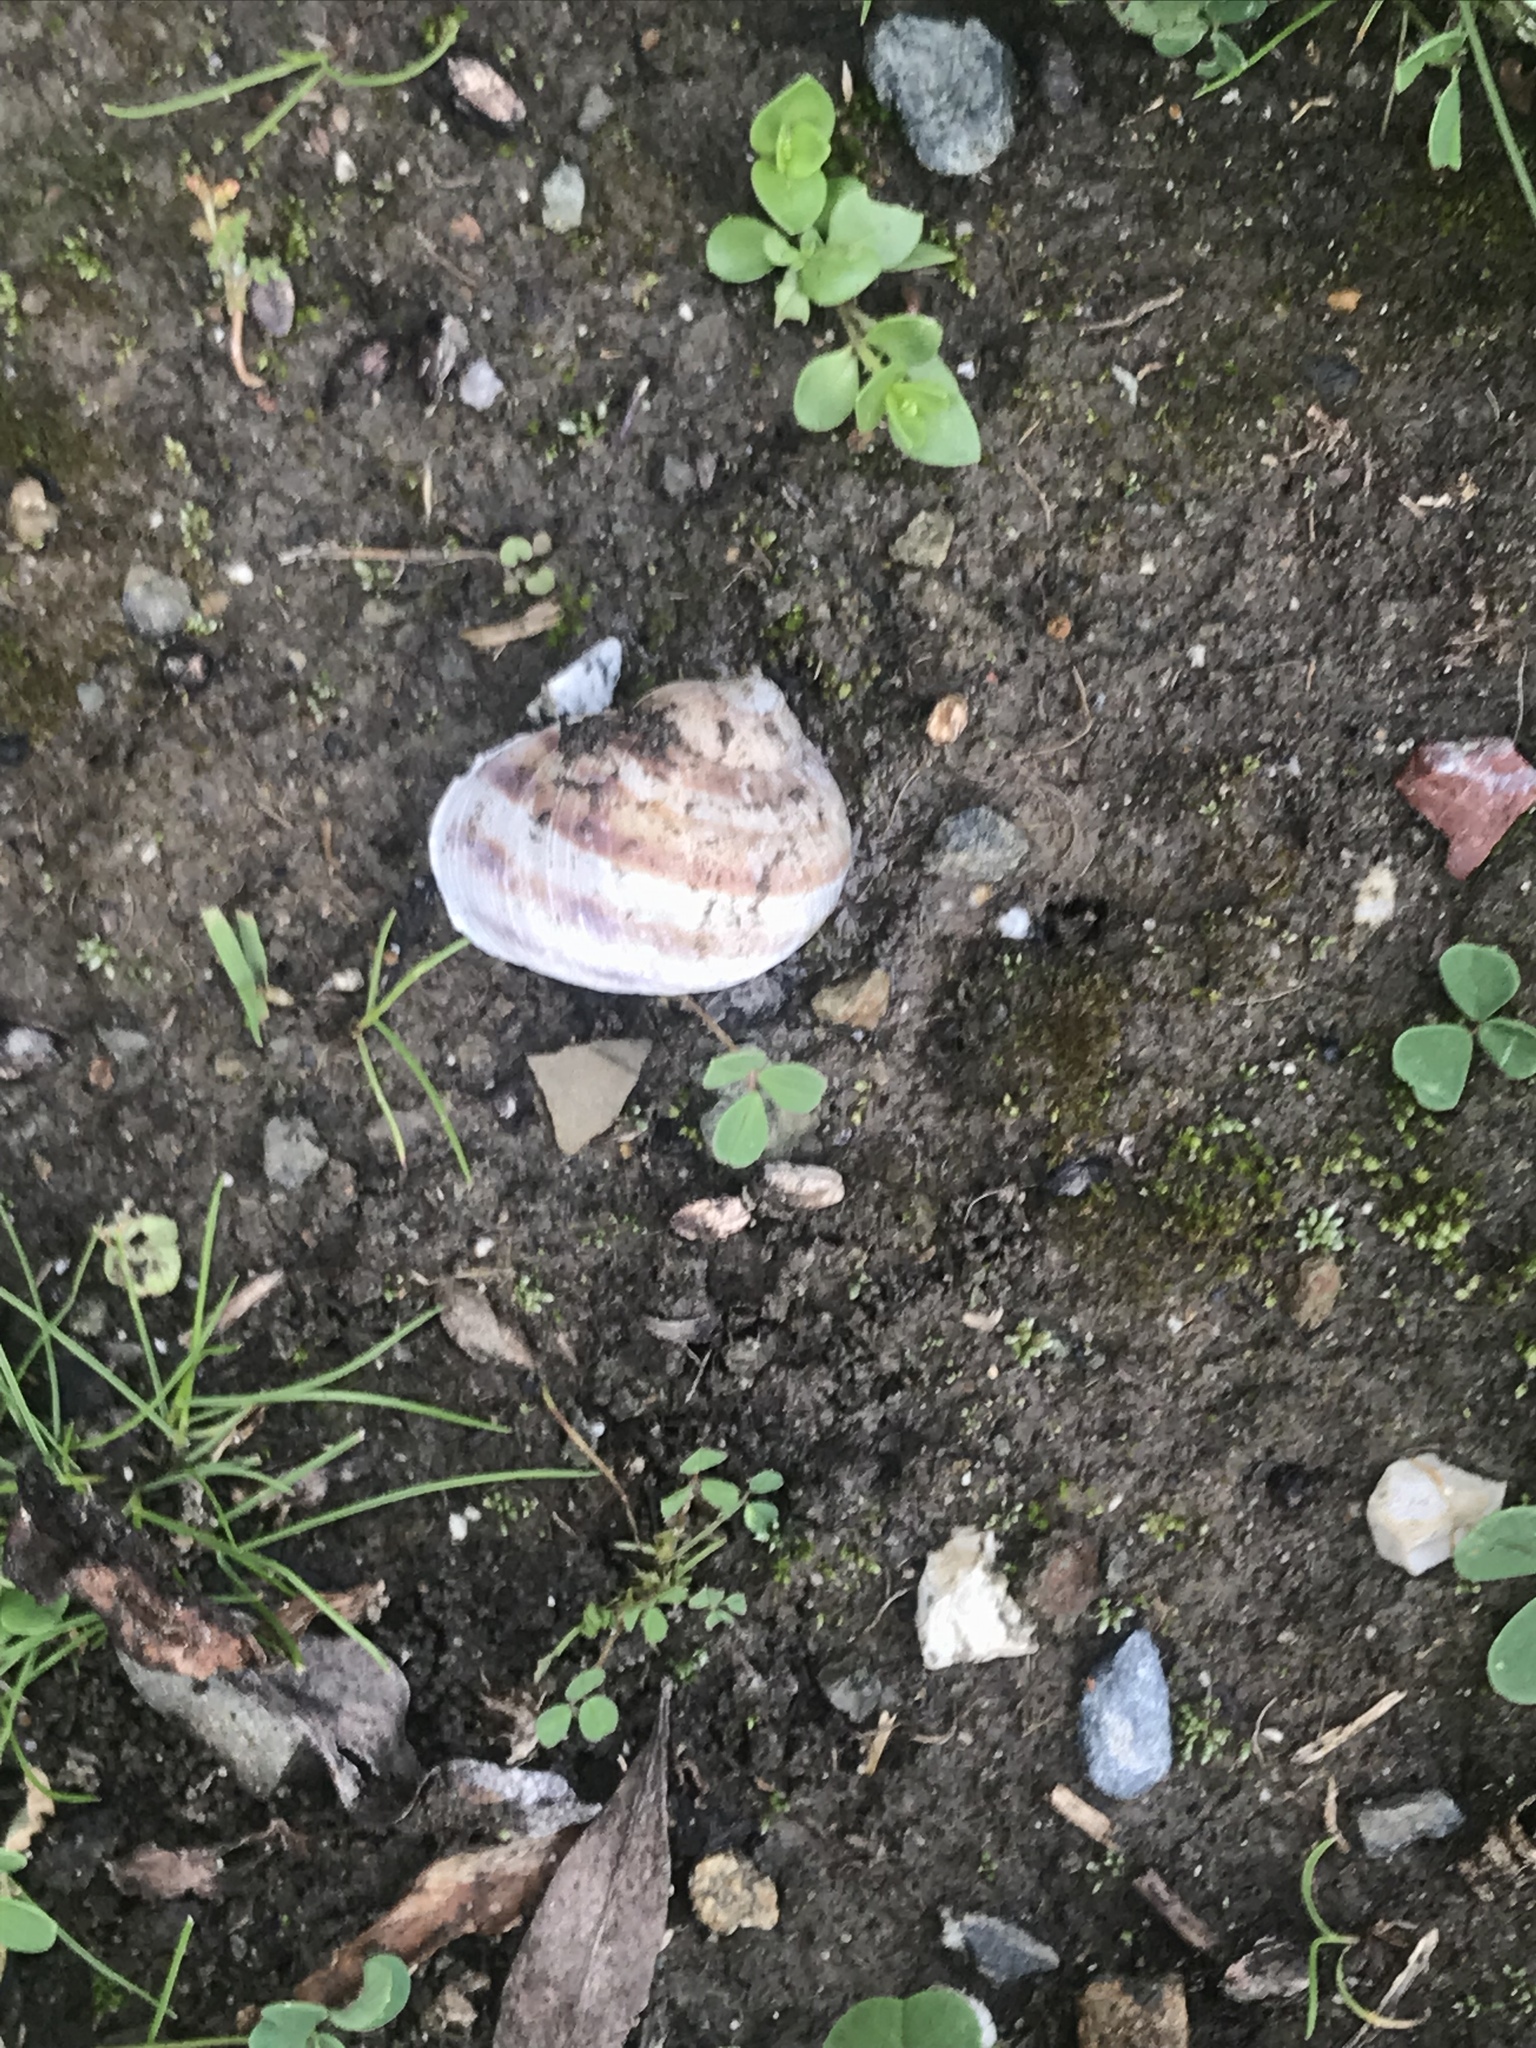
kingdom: Animalia
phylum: Mollusca
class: Gastropoda
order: Stylommatophora
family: Helicidae
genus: Cornu
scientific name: Cornu aspersum
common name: Brown garden snail
